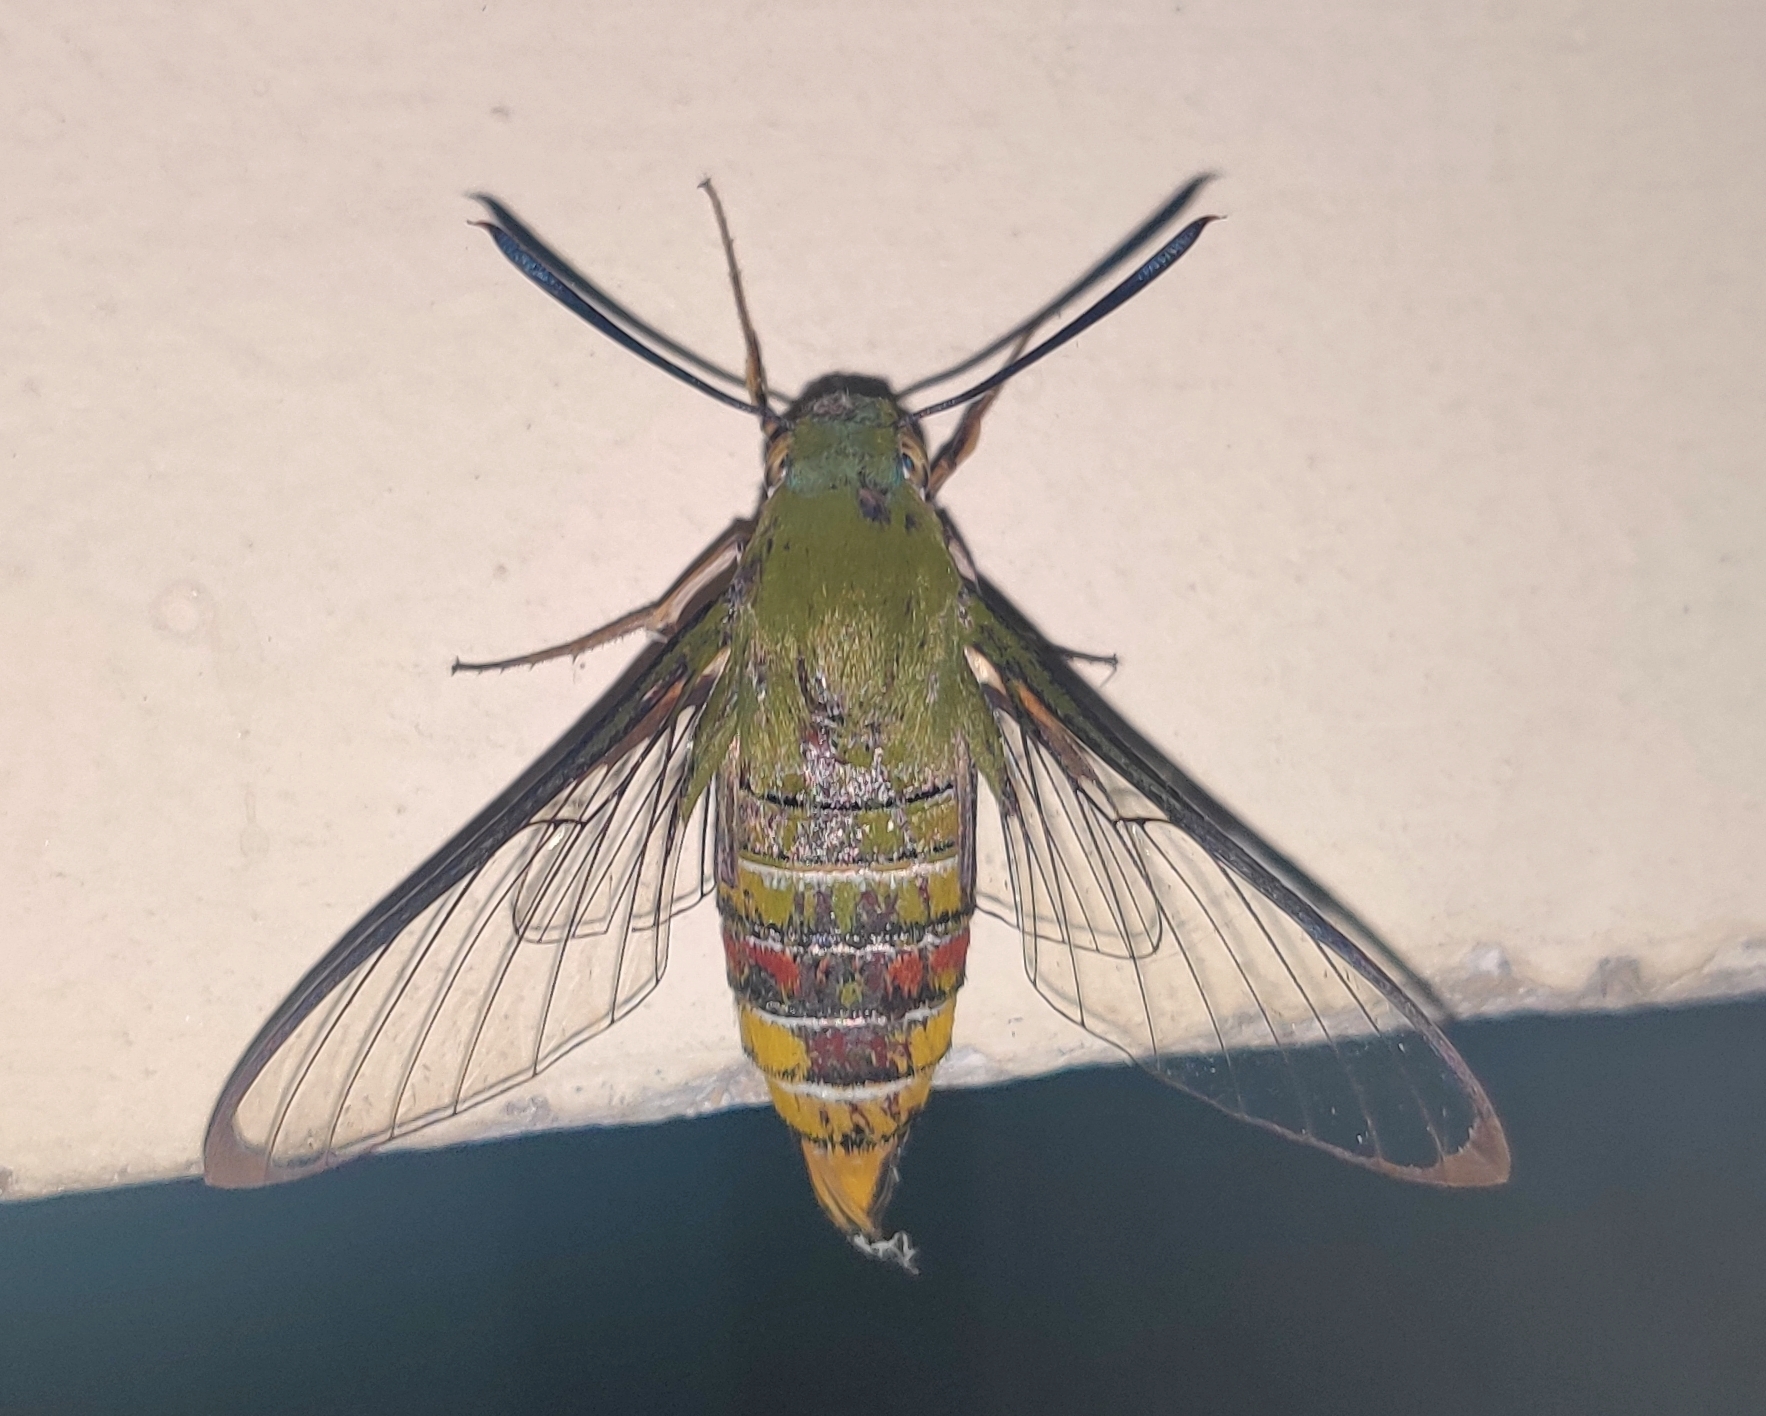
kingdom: Animalia
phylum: Arthropoda
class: Insecta
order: Lepidoptera
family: Sphingidae
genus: Cephonodes
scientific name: Cephonodes hylas
